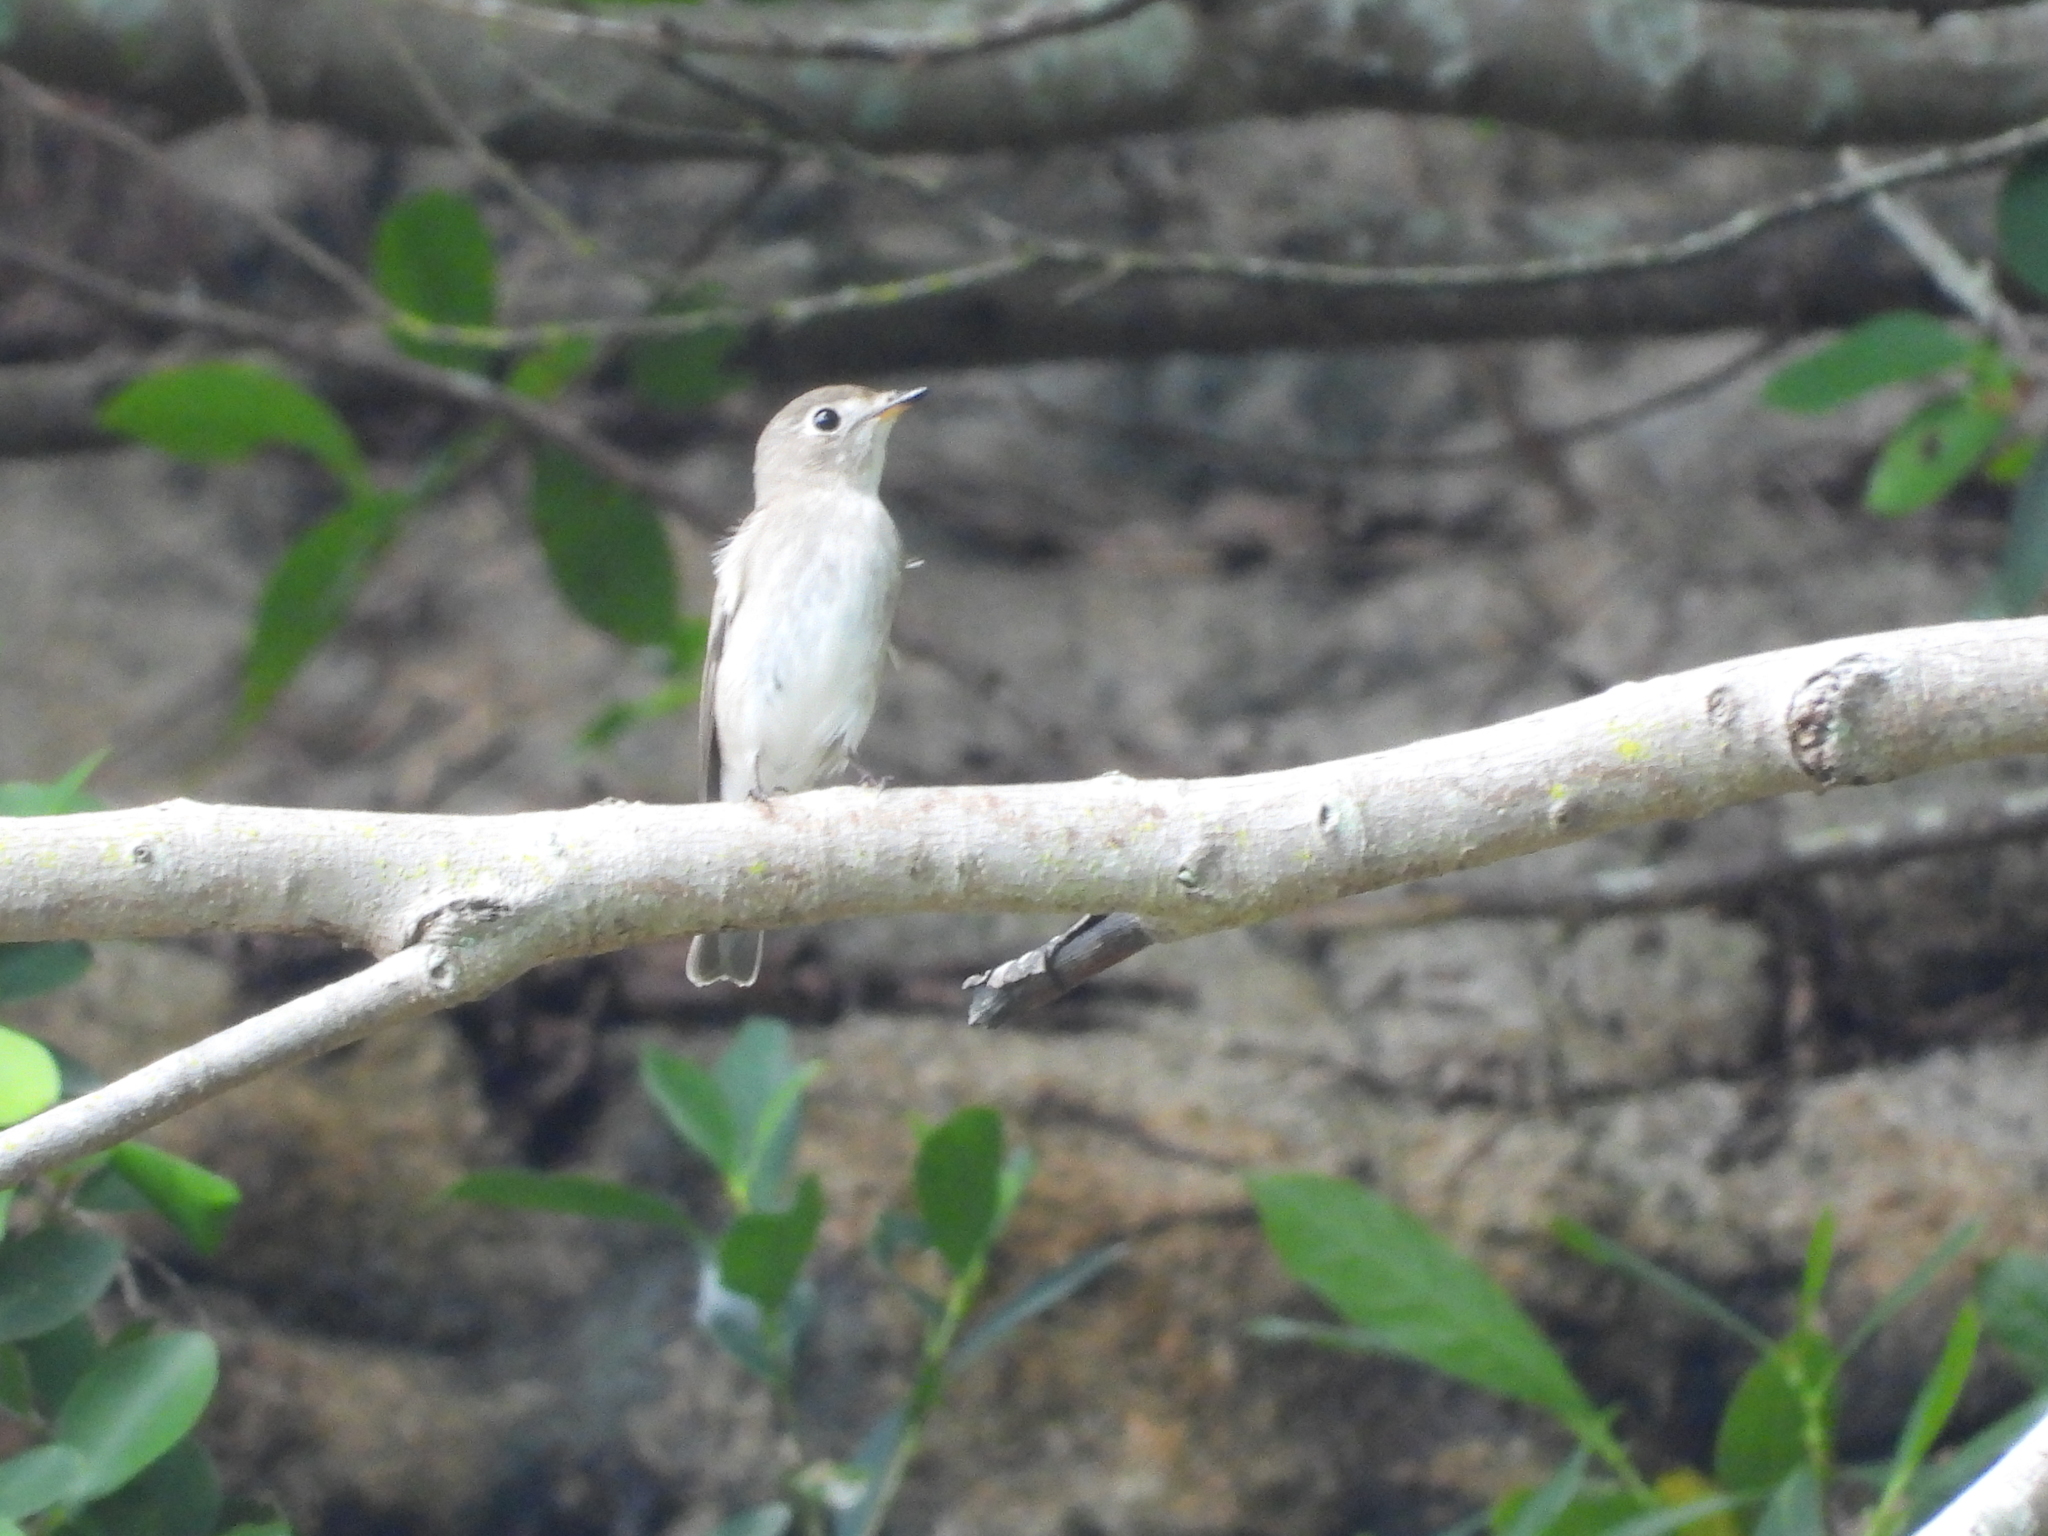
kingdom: Animalia
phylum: Chordata
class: Aves
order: Passeriformes
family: Muscicapidae
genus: Muscicapa
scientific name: Muscicapa latirostris
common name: Asian brown flycatcher
